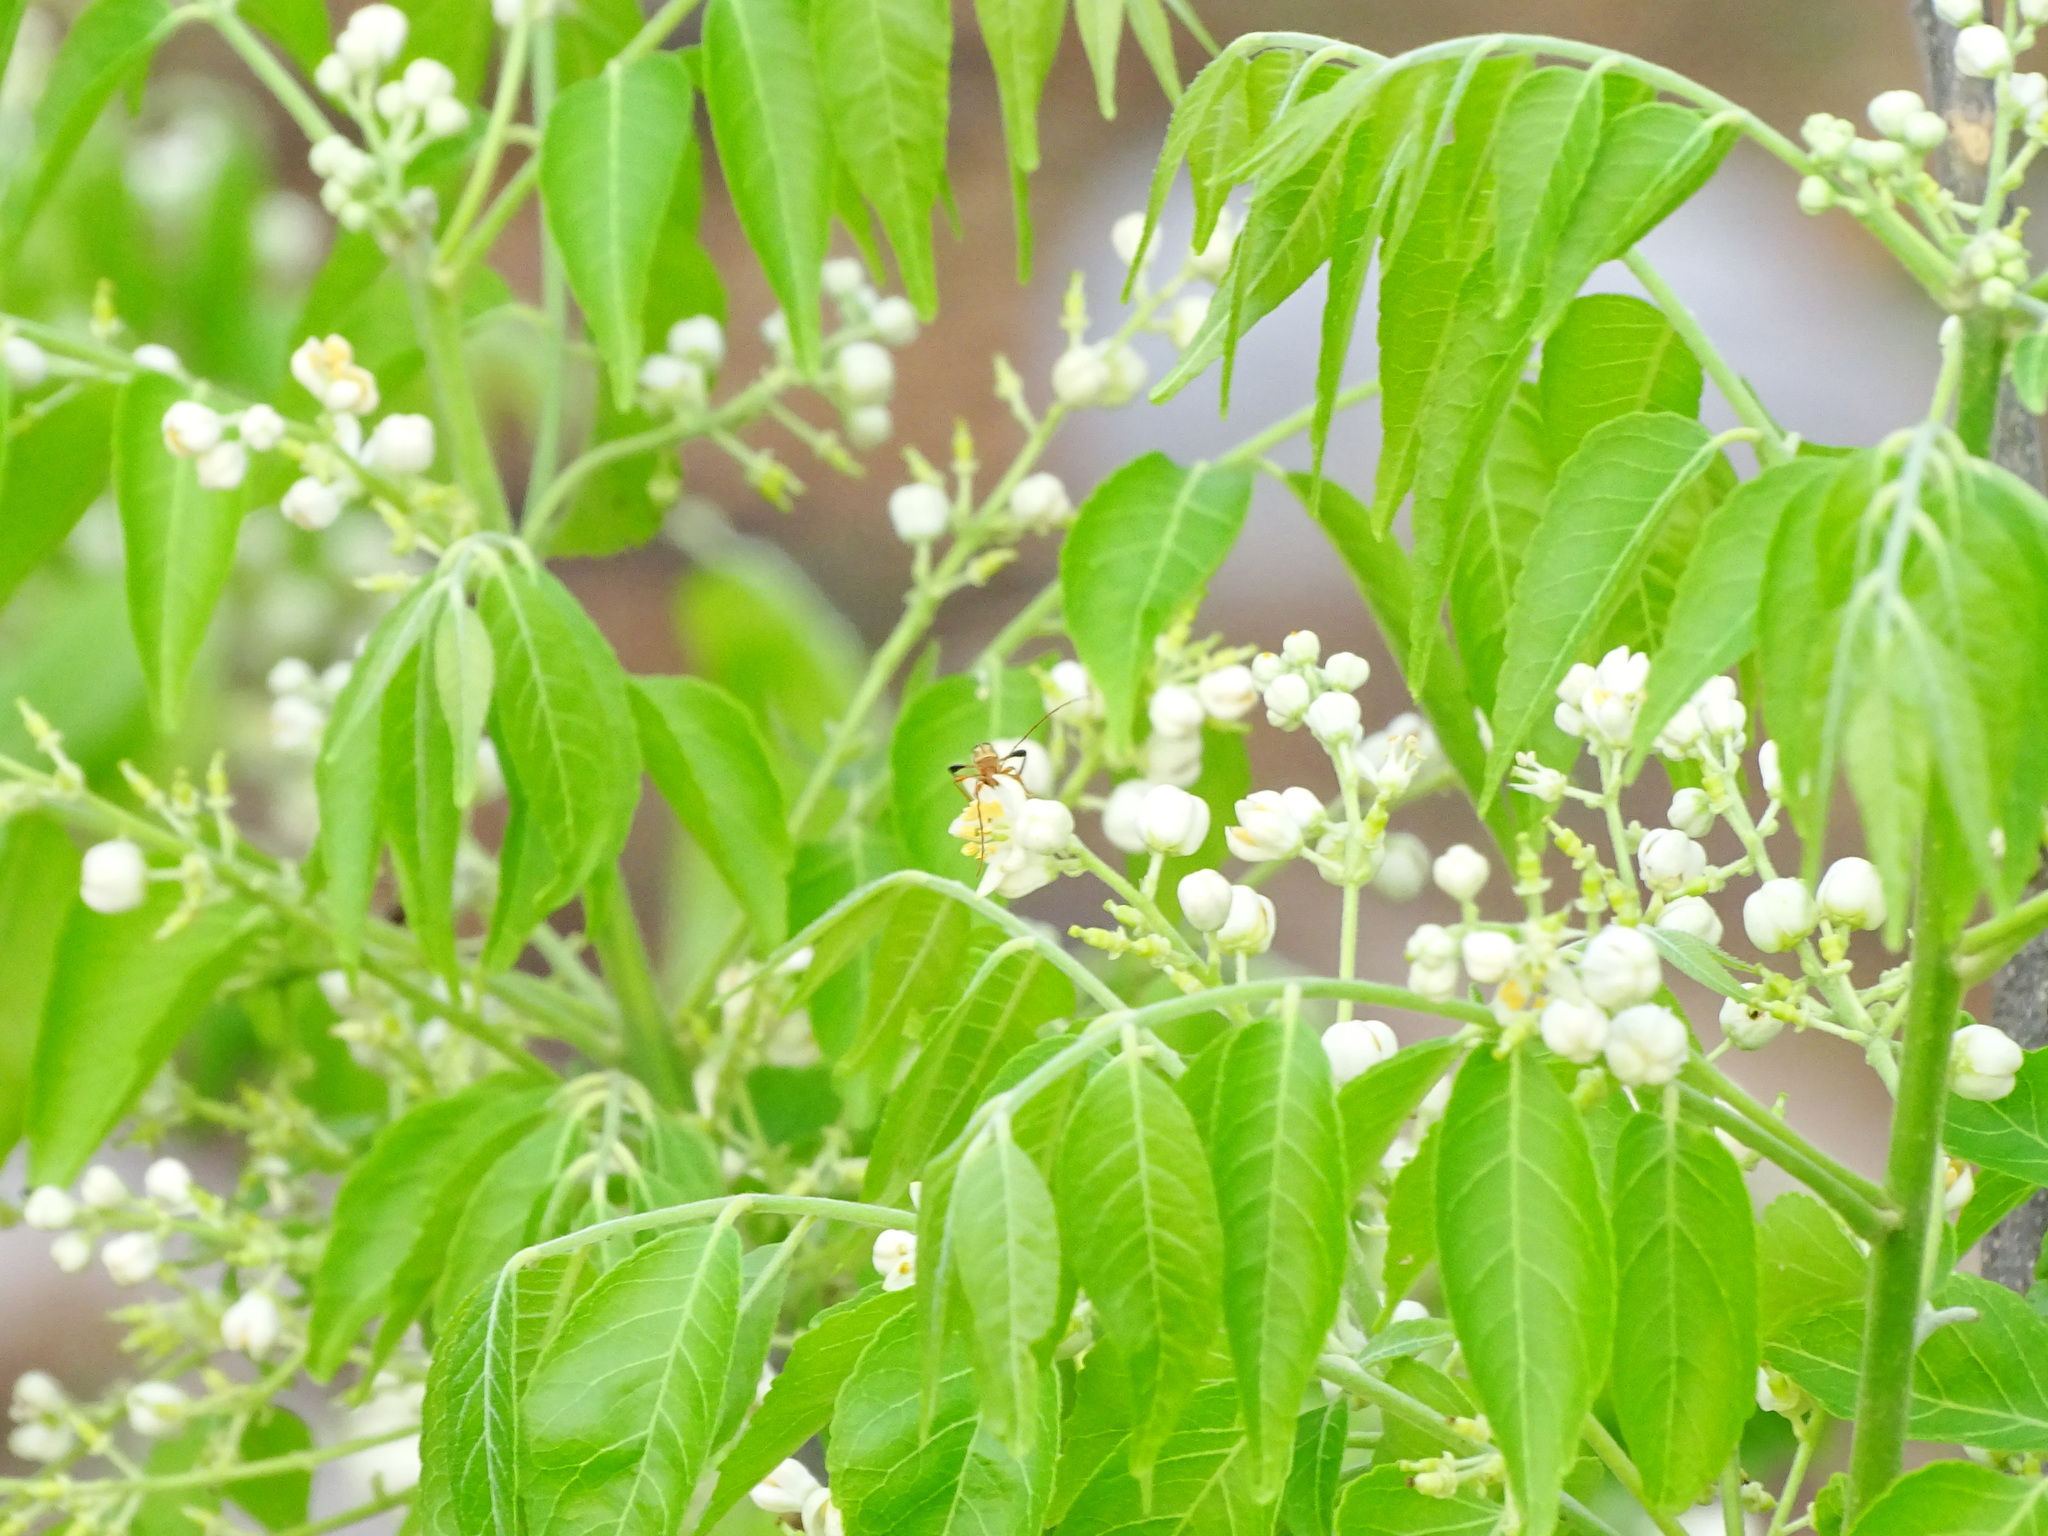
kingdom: Plantae
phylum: Tracheophyta
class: Magnoliopsida
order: Sapindales
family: Rutaceae
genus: Clausena
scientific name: Clausena anisata
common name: Horsewood
